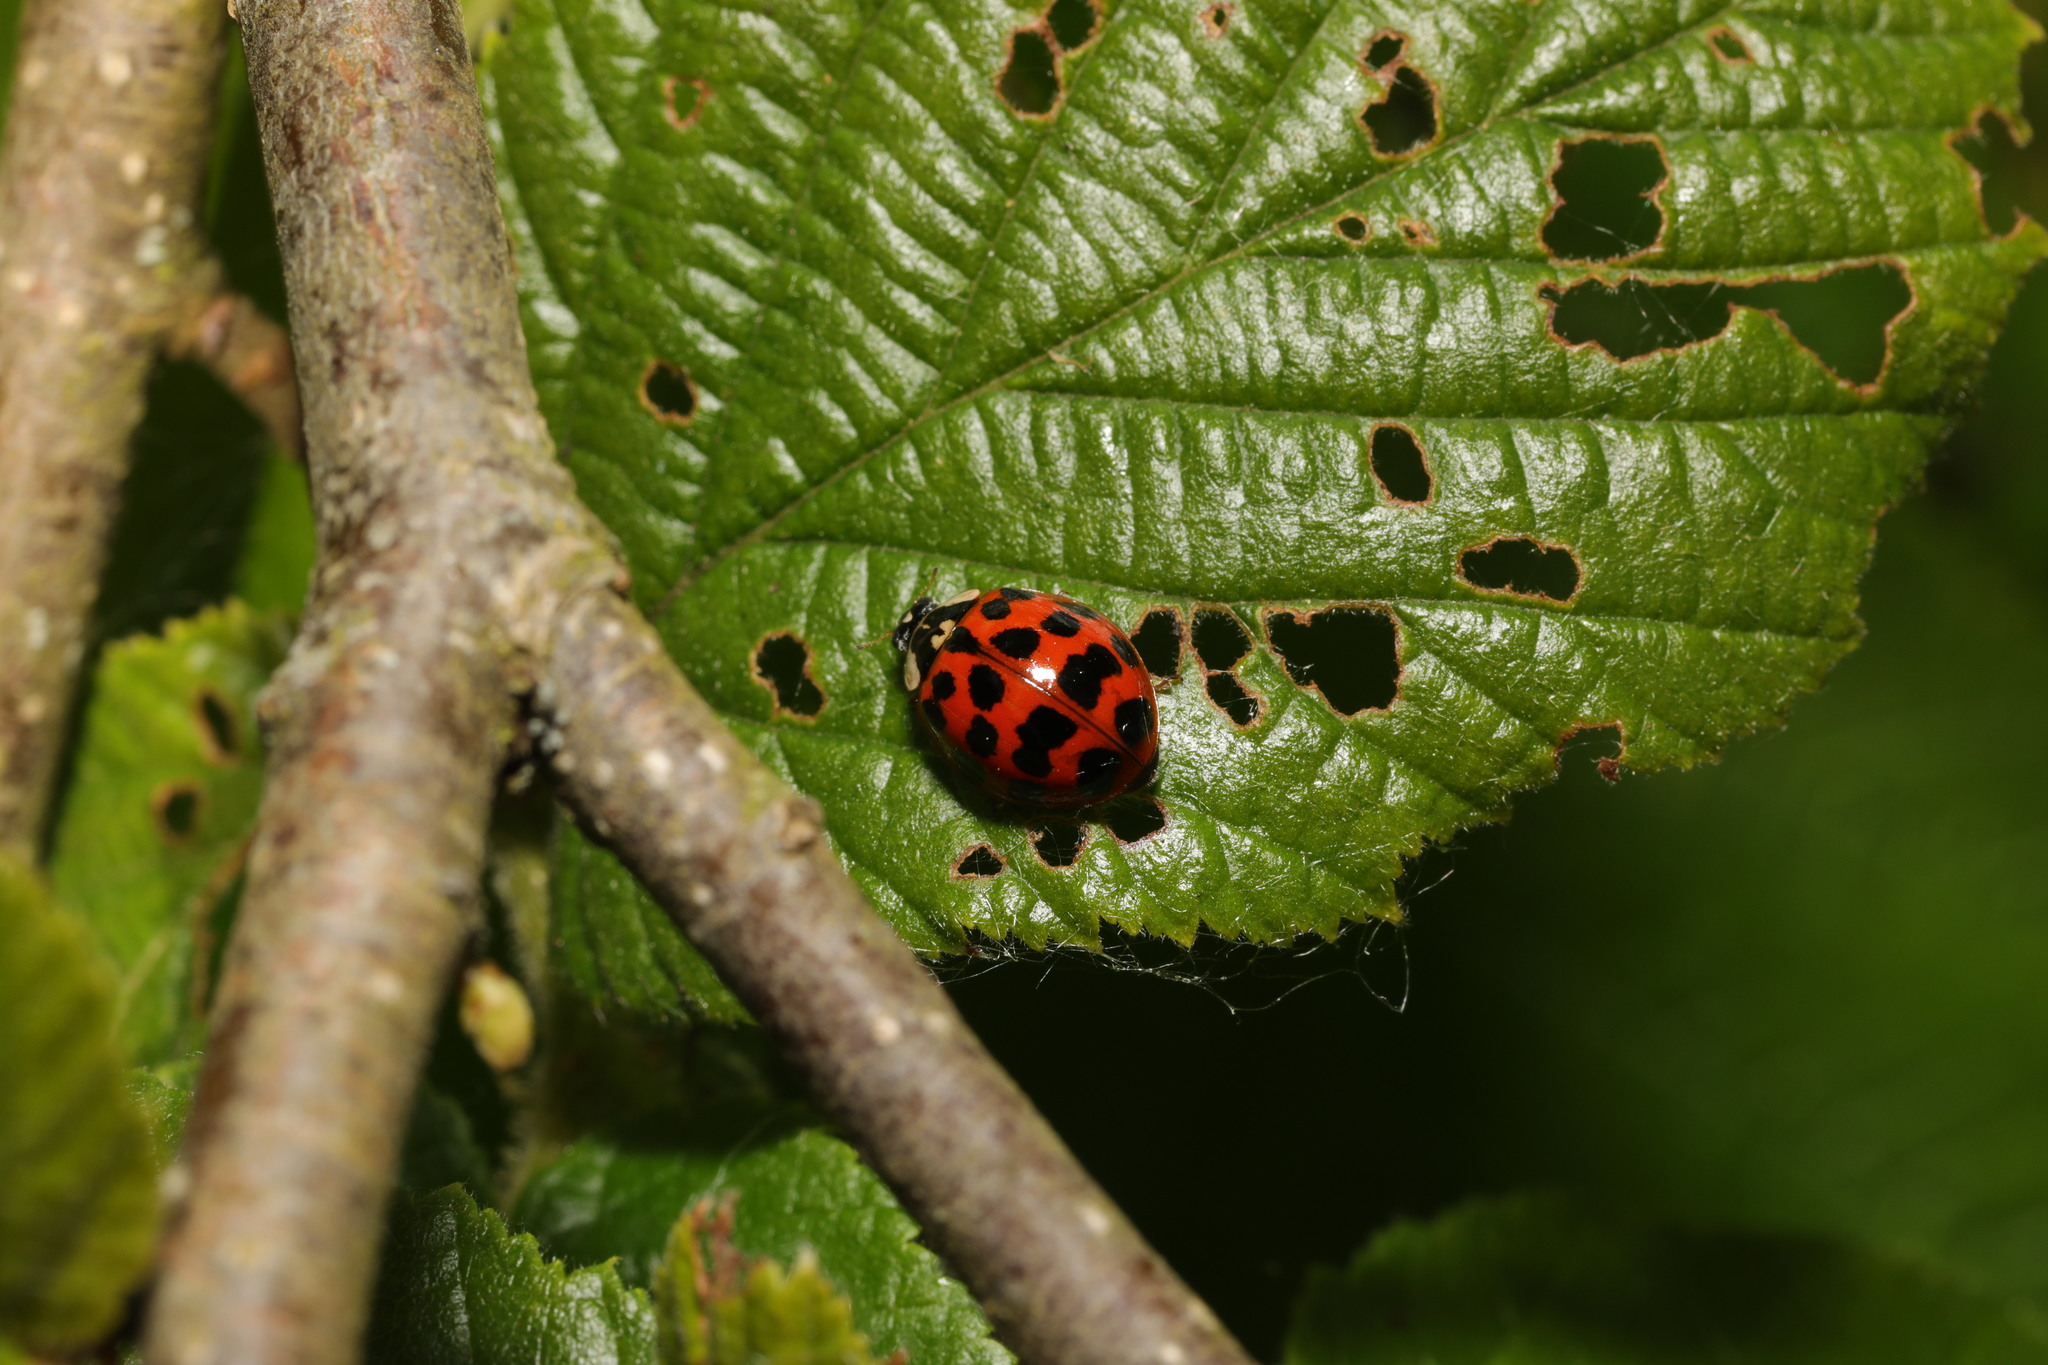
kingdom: Animalia
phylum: Arthropoda
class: Insecta
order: Coleoptera
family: Coccinellidae
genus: Harmonia
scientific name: Harmonia axyridis
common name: Harlequin ladybird
